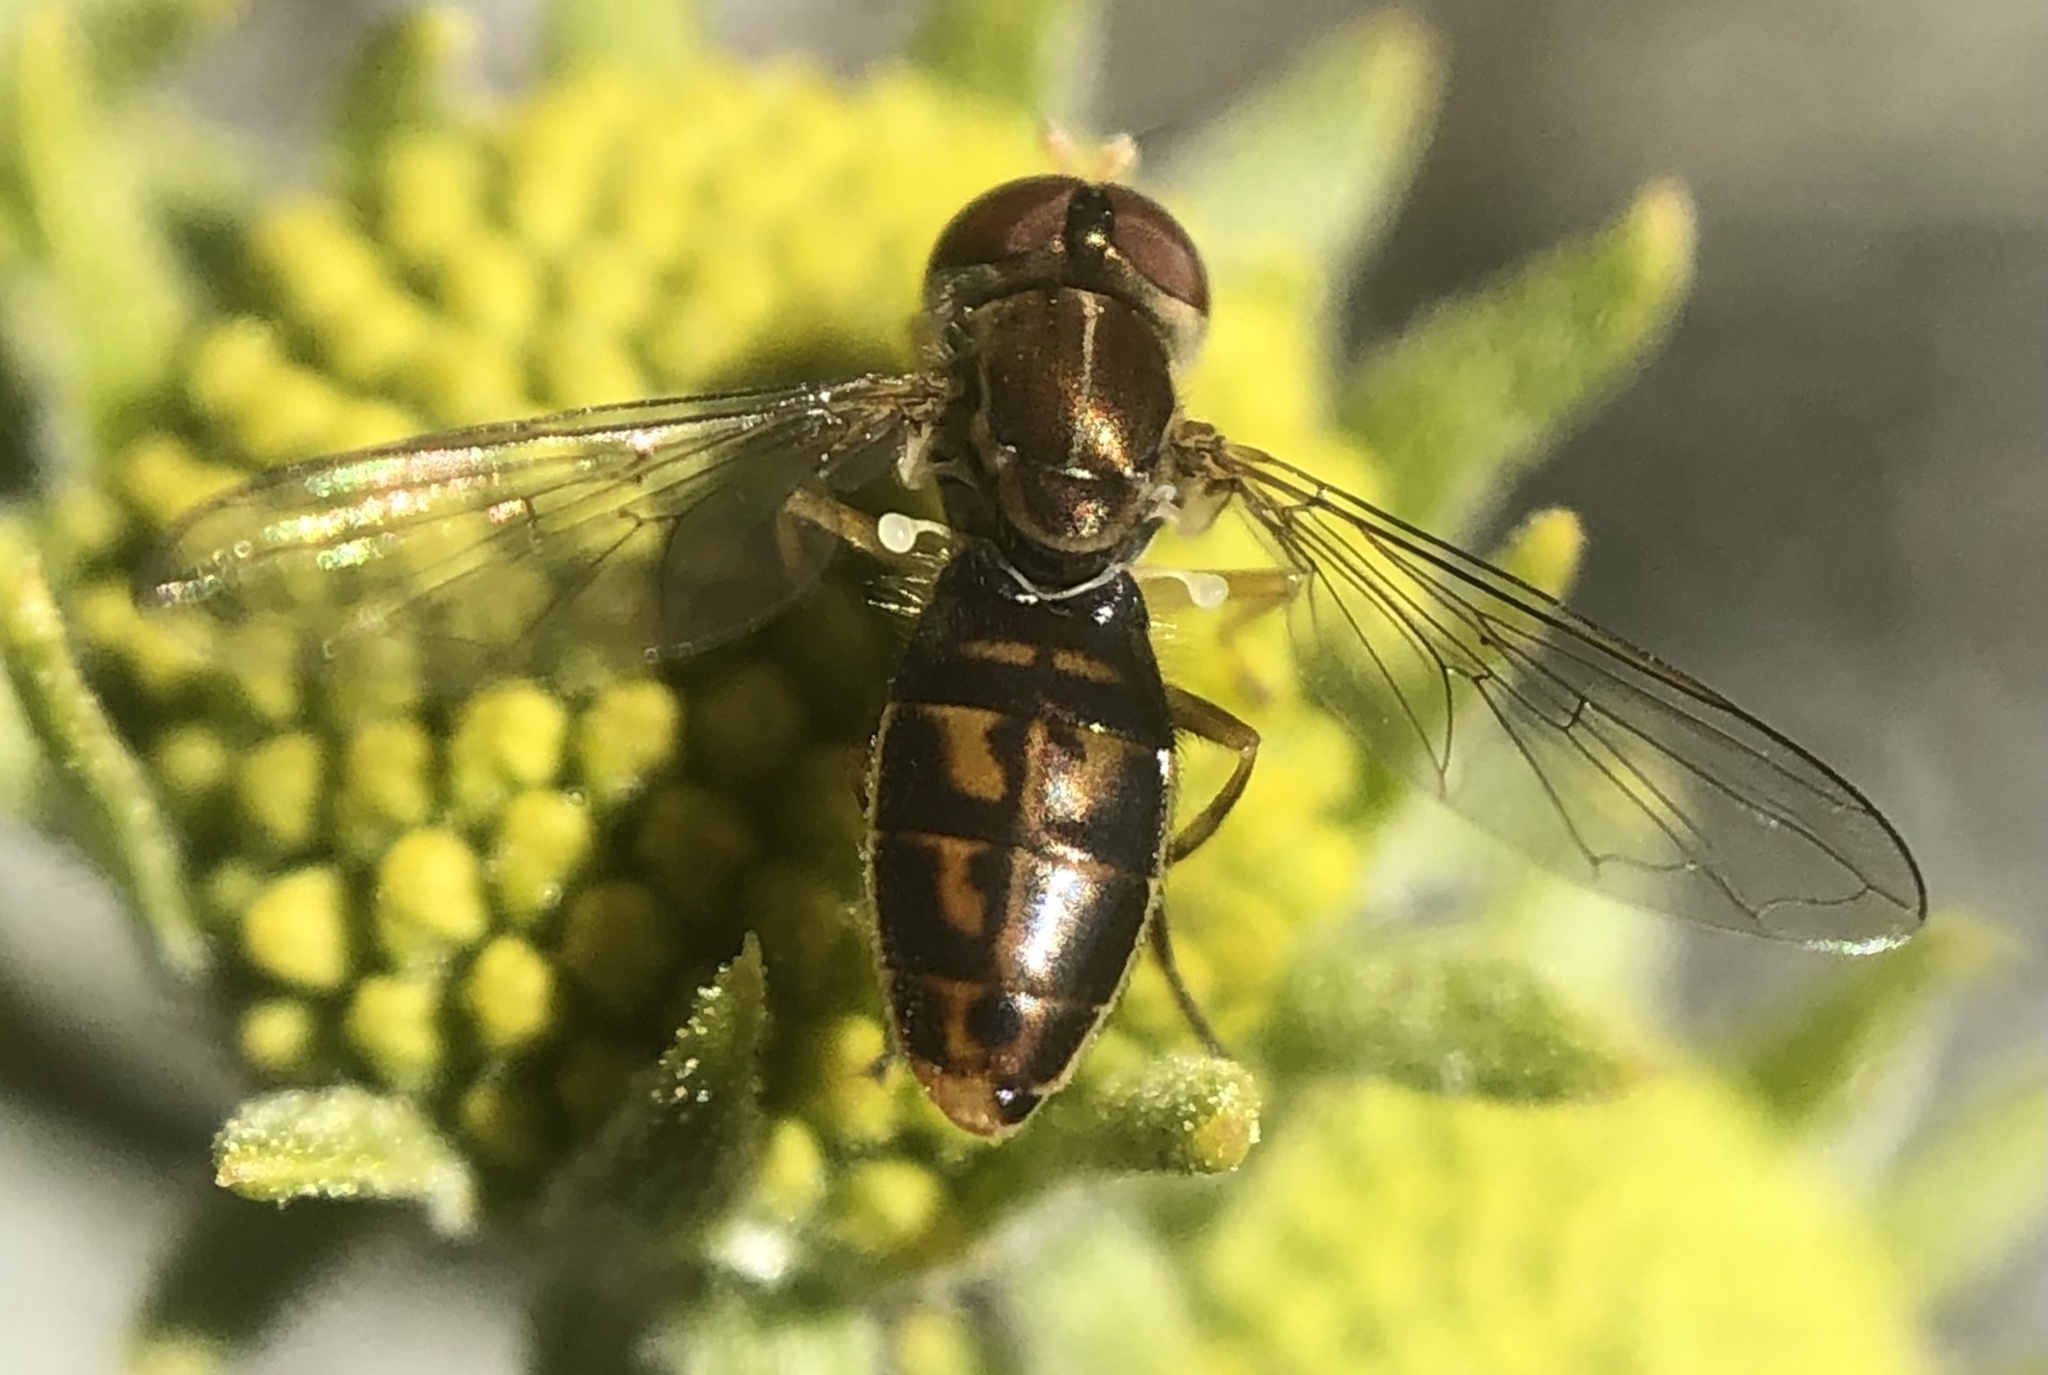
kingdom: Animalia
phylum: Arthropoda
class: Insecta
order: Diptera
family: Syrphidae
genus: Toxomerus
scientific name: Toxomerus marginatus
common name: Syrphid fly
